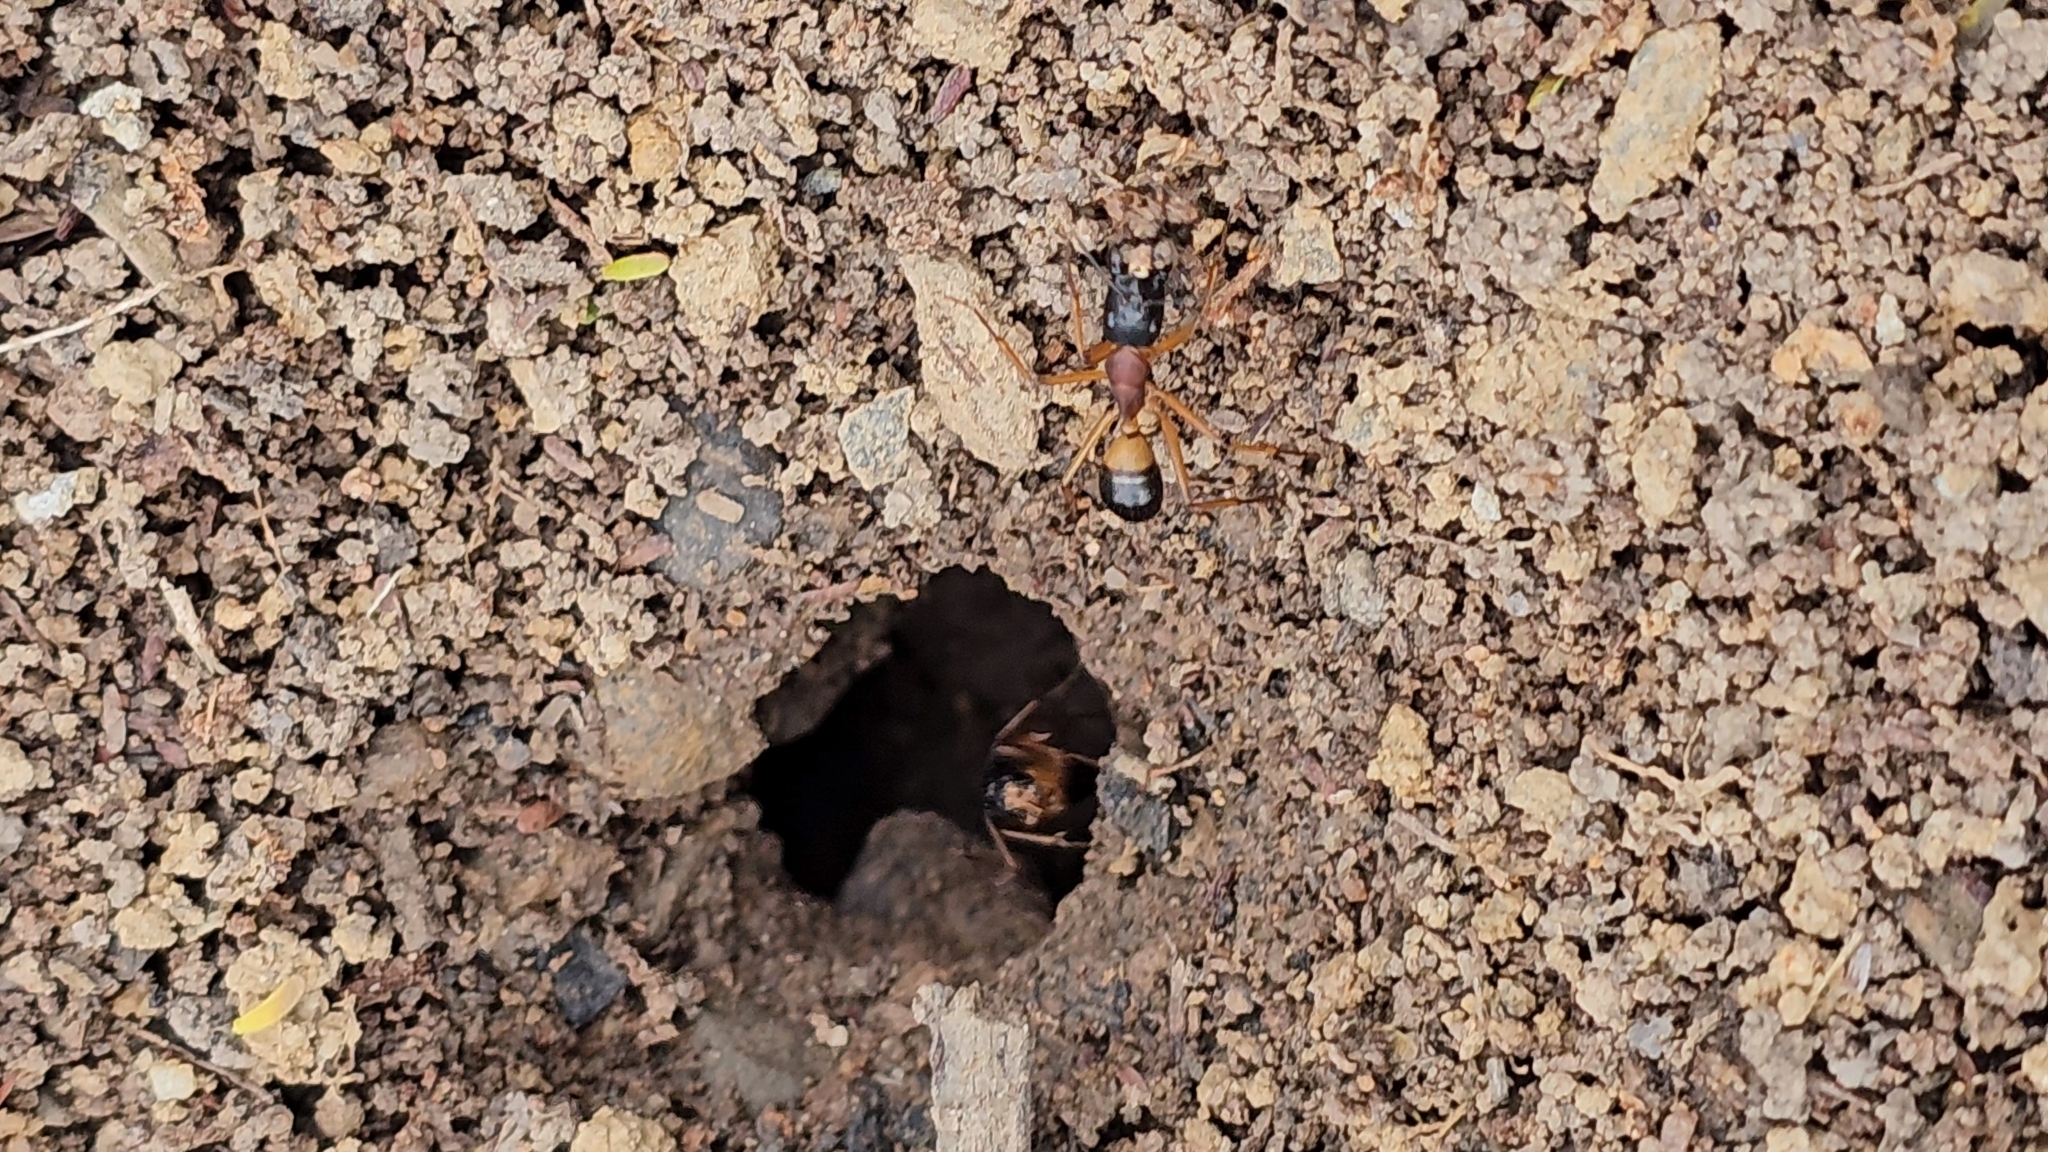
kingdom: Animalia
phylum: Arthropoda
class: Insecta
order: Hymenoptera
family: Formicidae
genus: Camponotus
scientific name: Camponotus consobrinus
